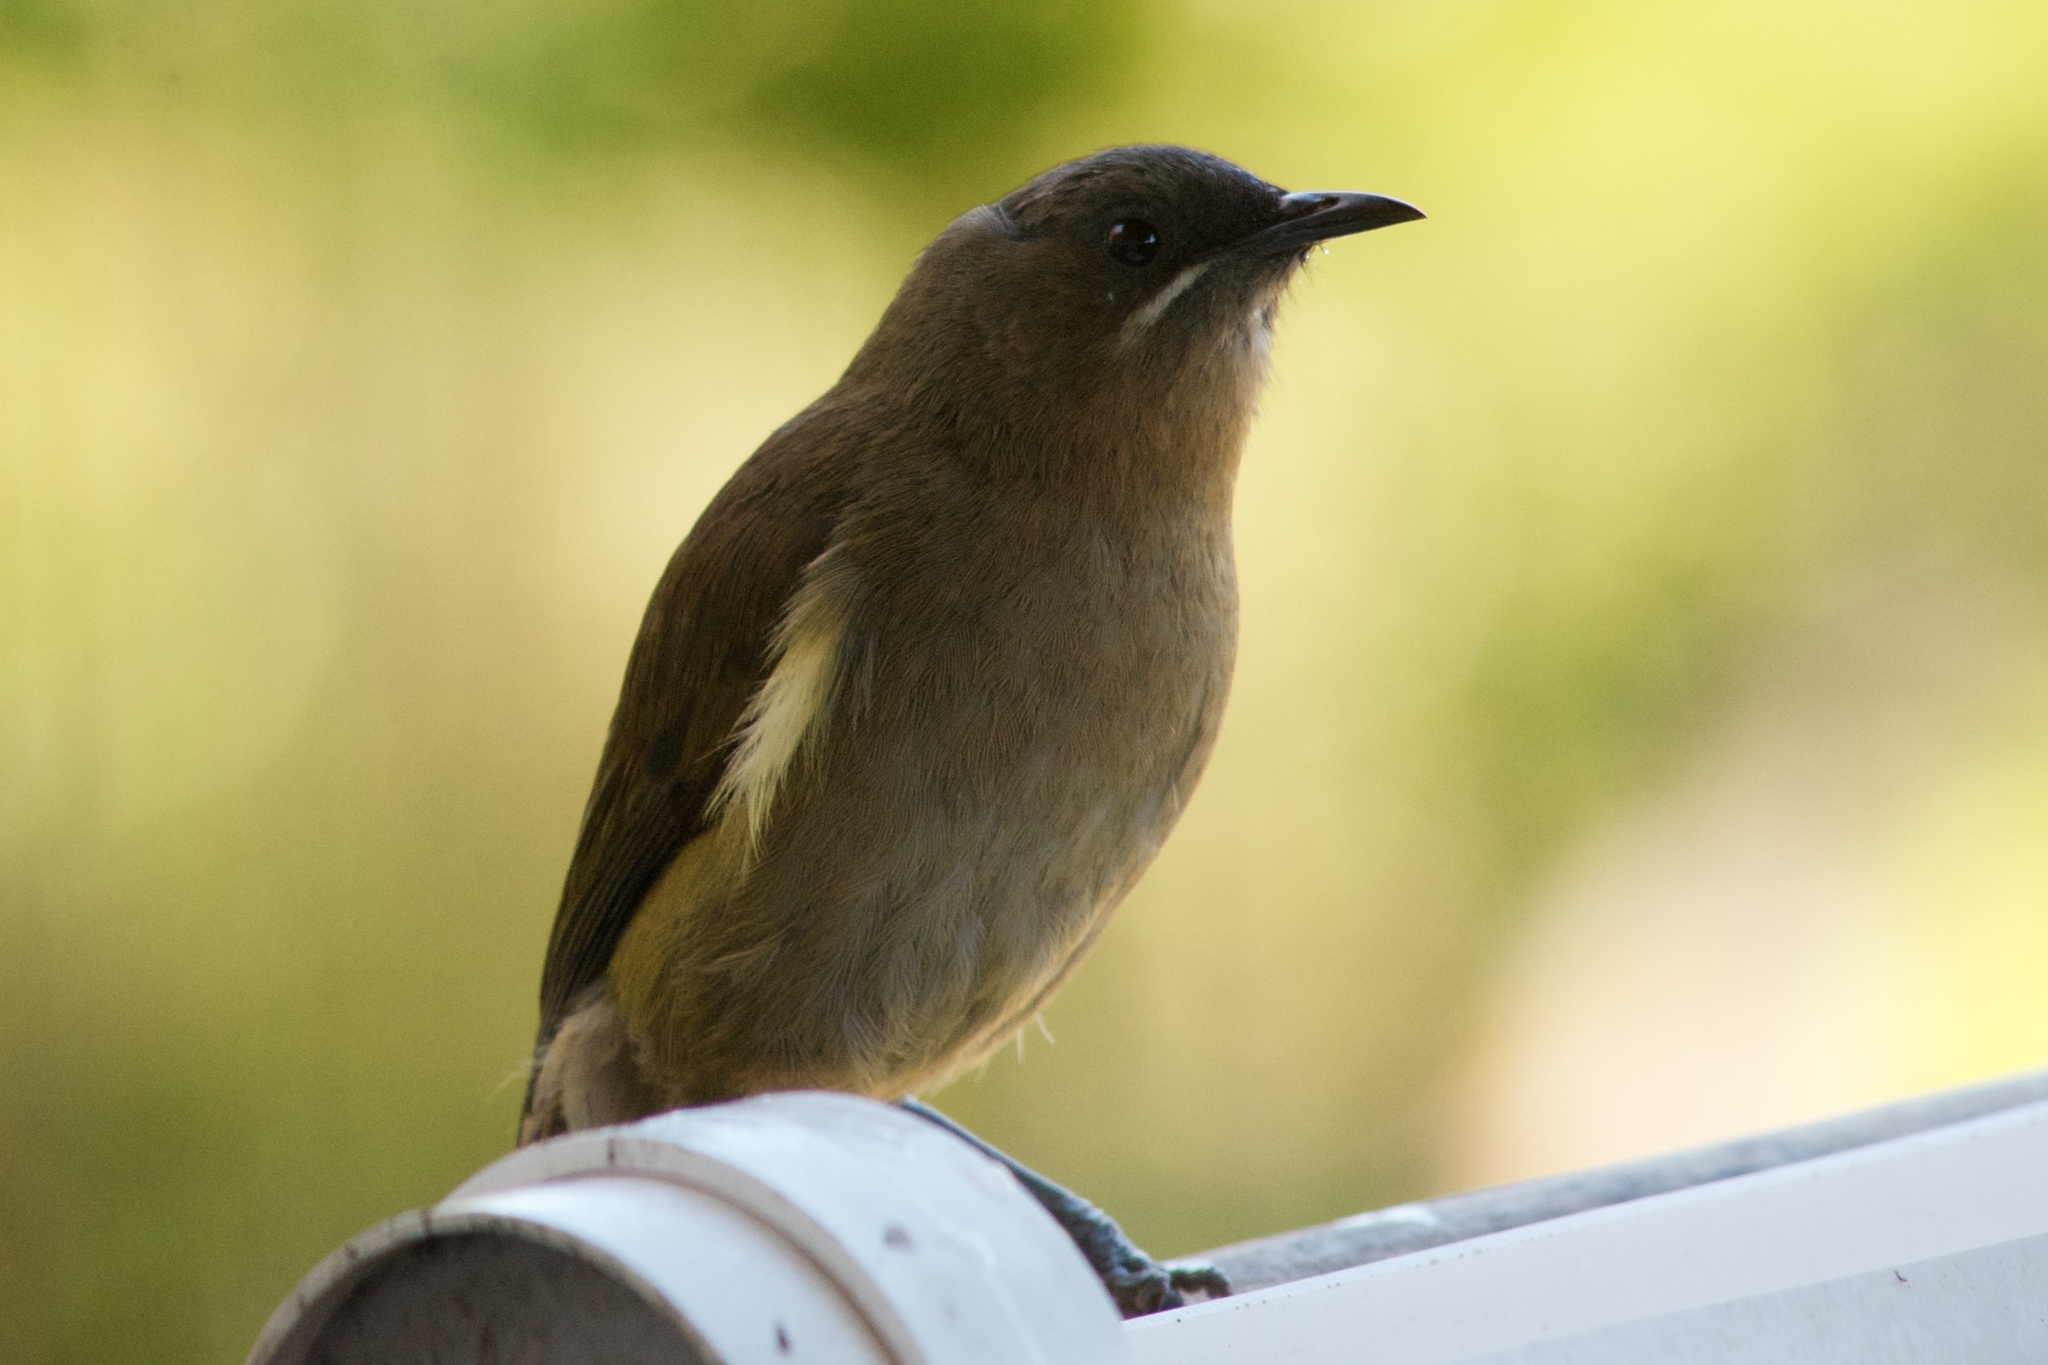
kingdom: Animalia
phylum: Chordata
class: Aves
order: Passeriformes
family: Meliphagidae
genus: Anthornis
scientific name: Anthornis melanura
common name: New zealand bellbird
